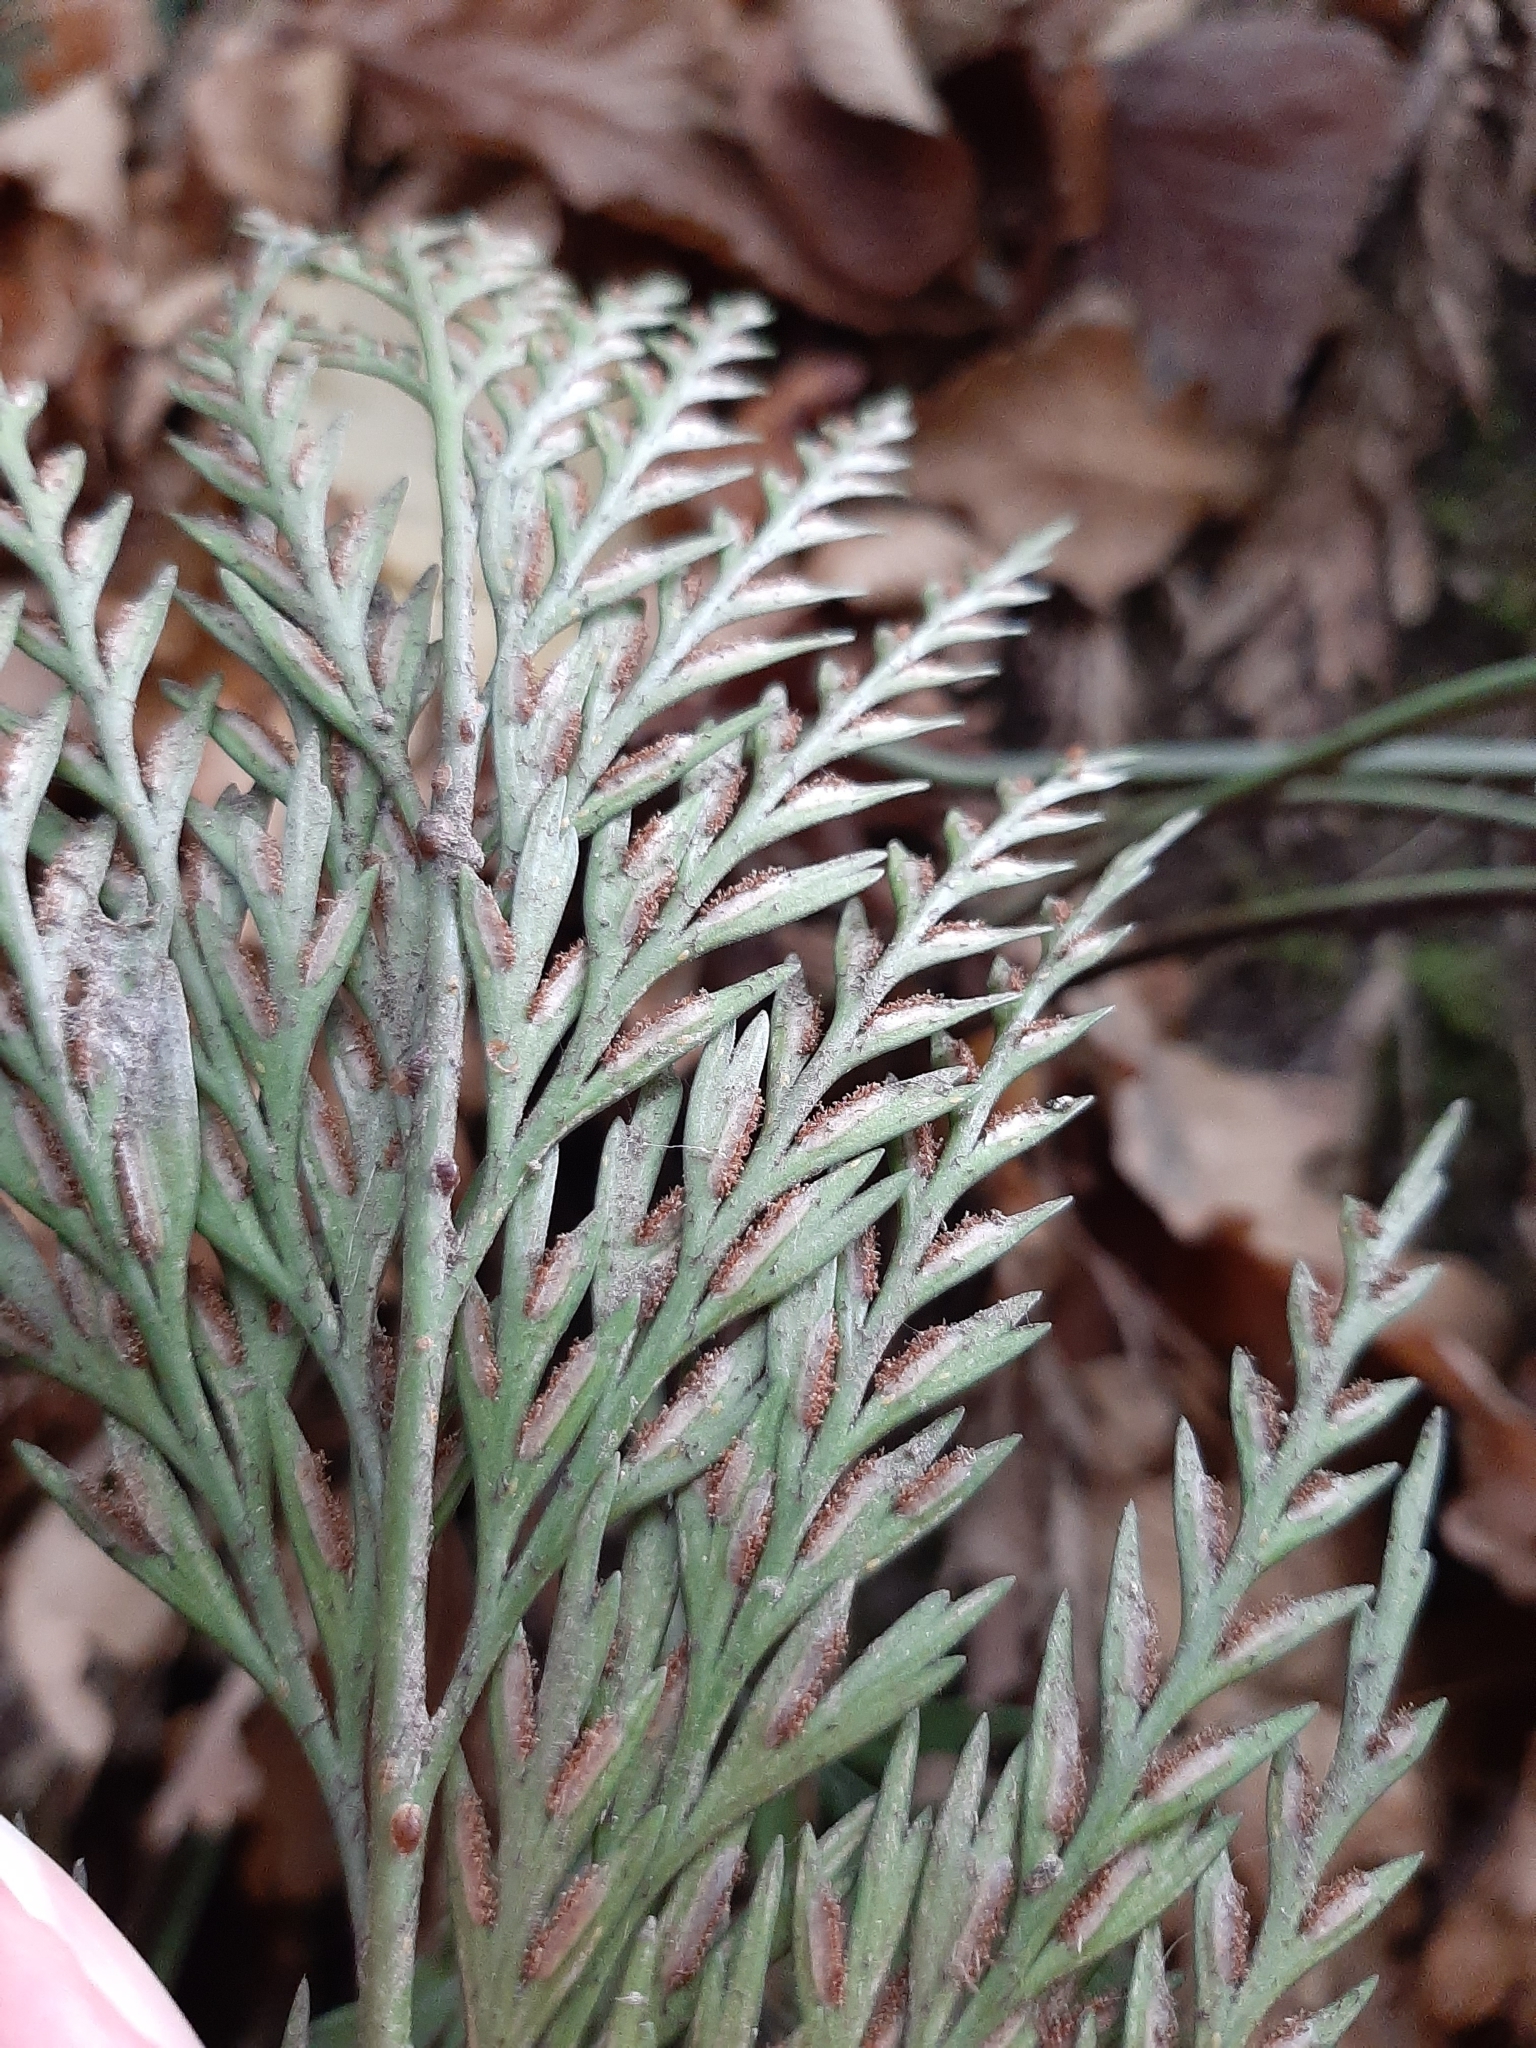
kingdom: Plantae
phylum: Tracheophyta
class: Polypodiopsida
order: Polypodiales
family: Aspleniaceae
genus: Asplenium
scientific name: Asplenium appendiculatum
